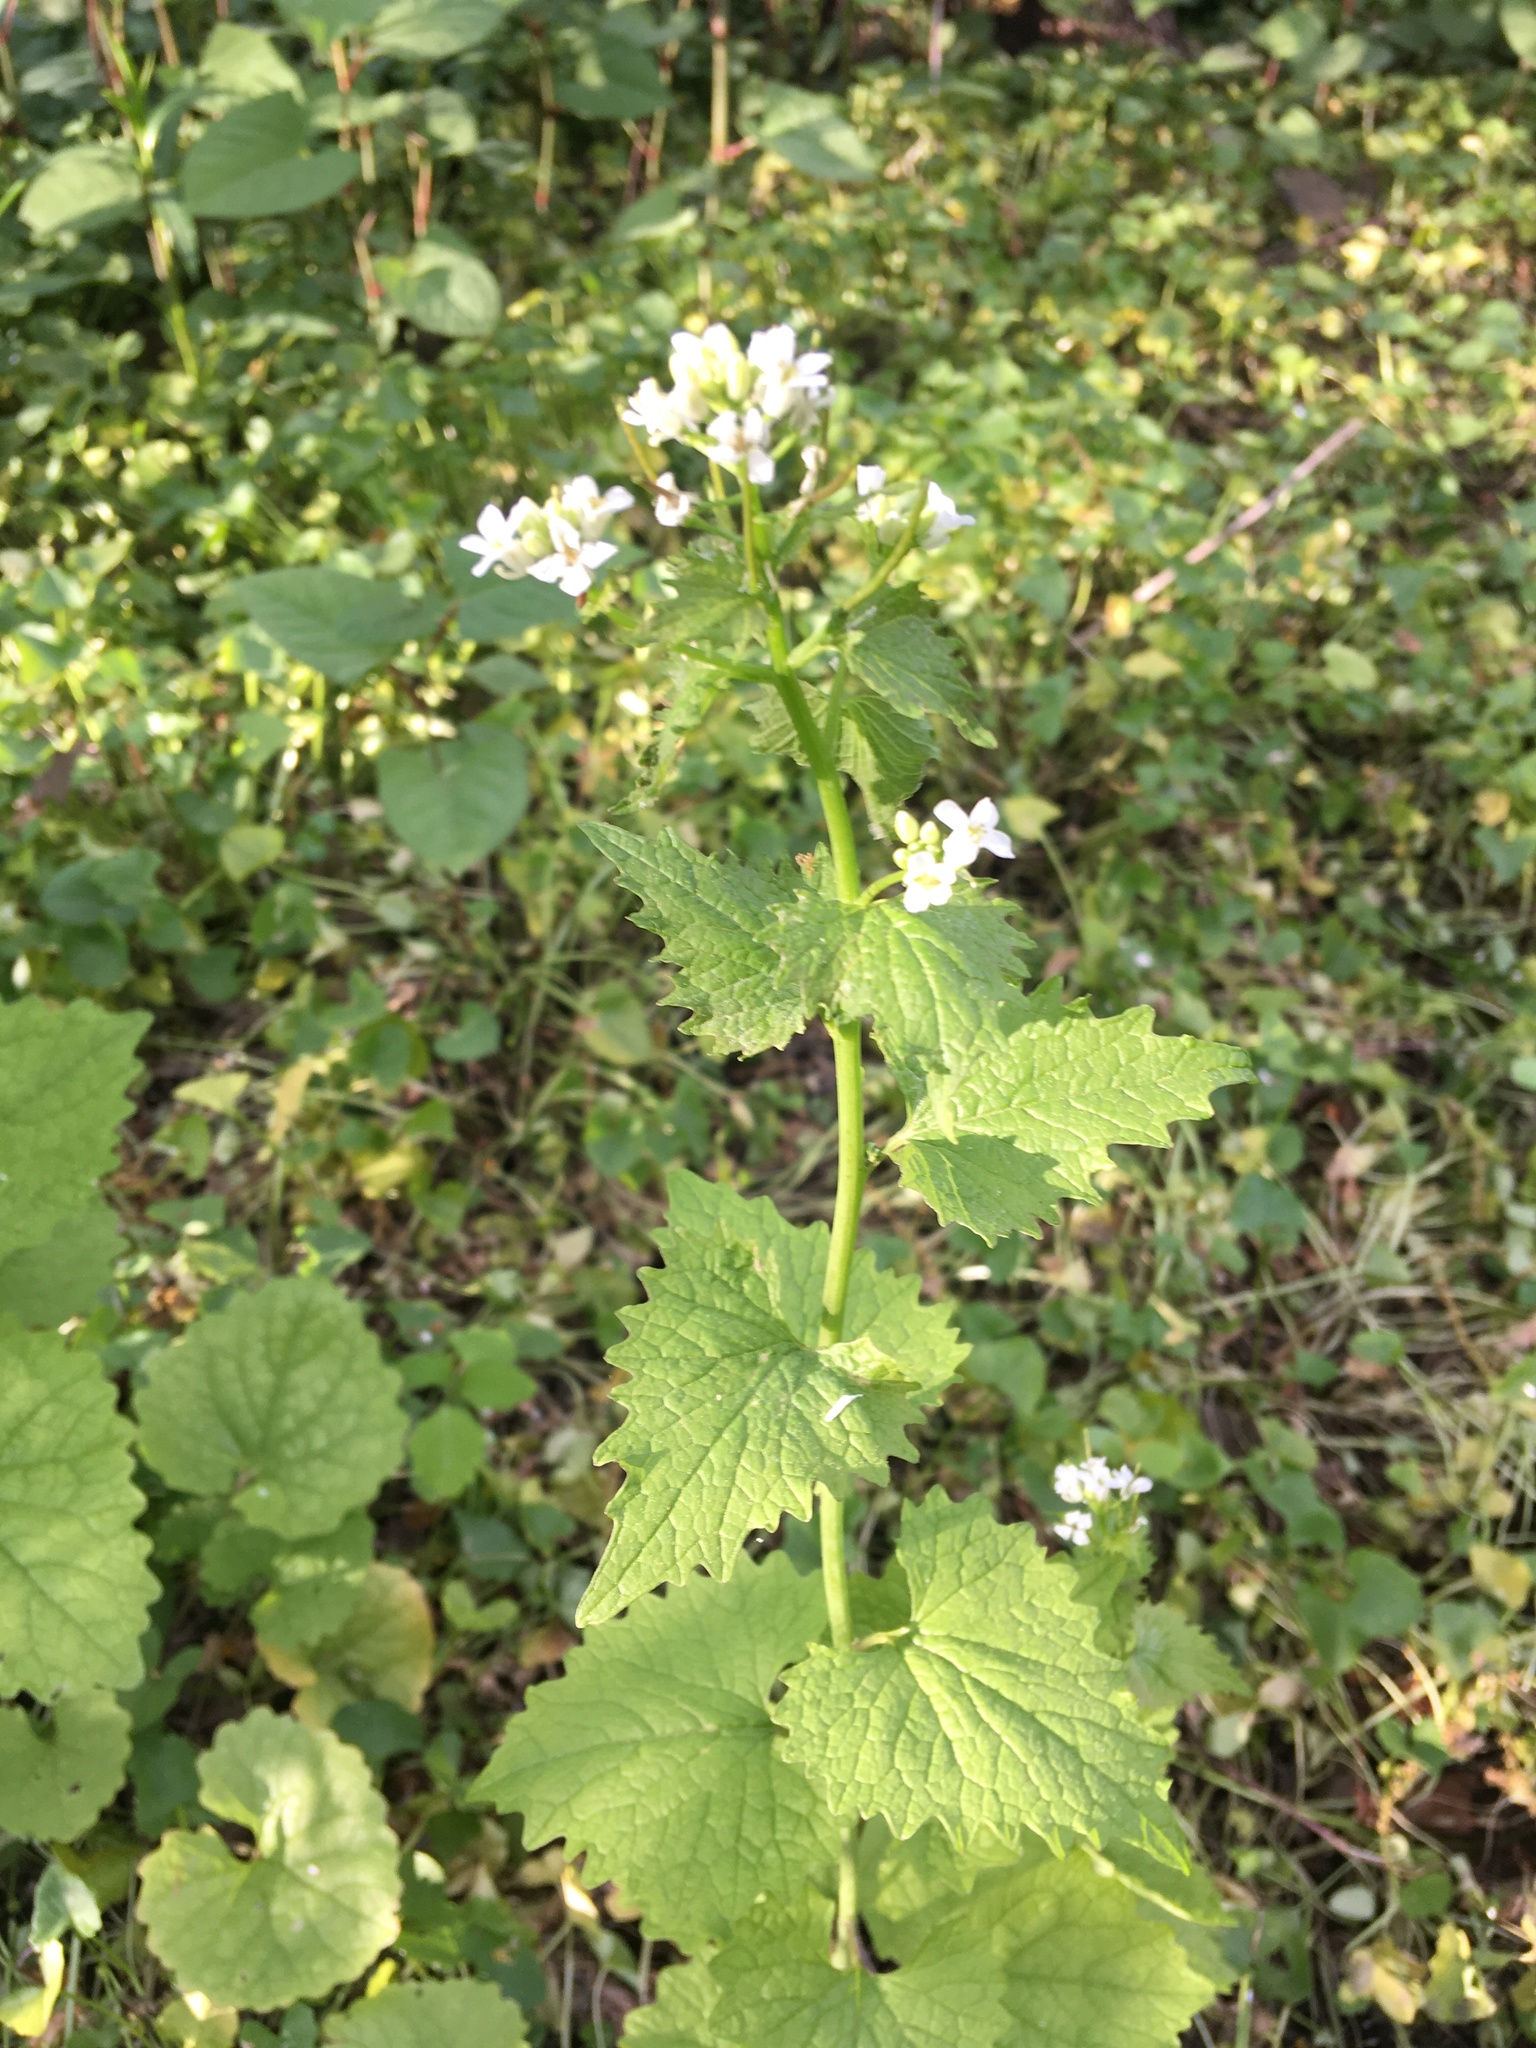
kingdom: Plantae
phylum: Tracheophyta
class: Magnoliopsida
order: Brassicales
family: Brassicaceae
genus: Alliaria
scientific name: Alliaria petiolata
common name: Garlic mustard
